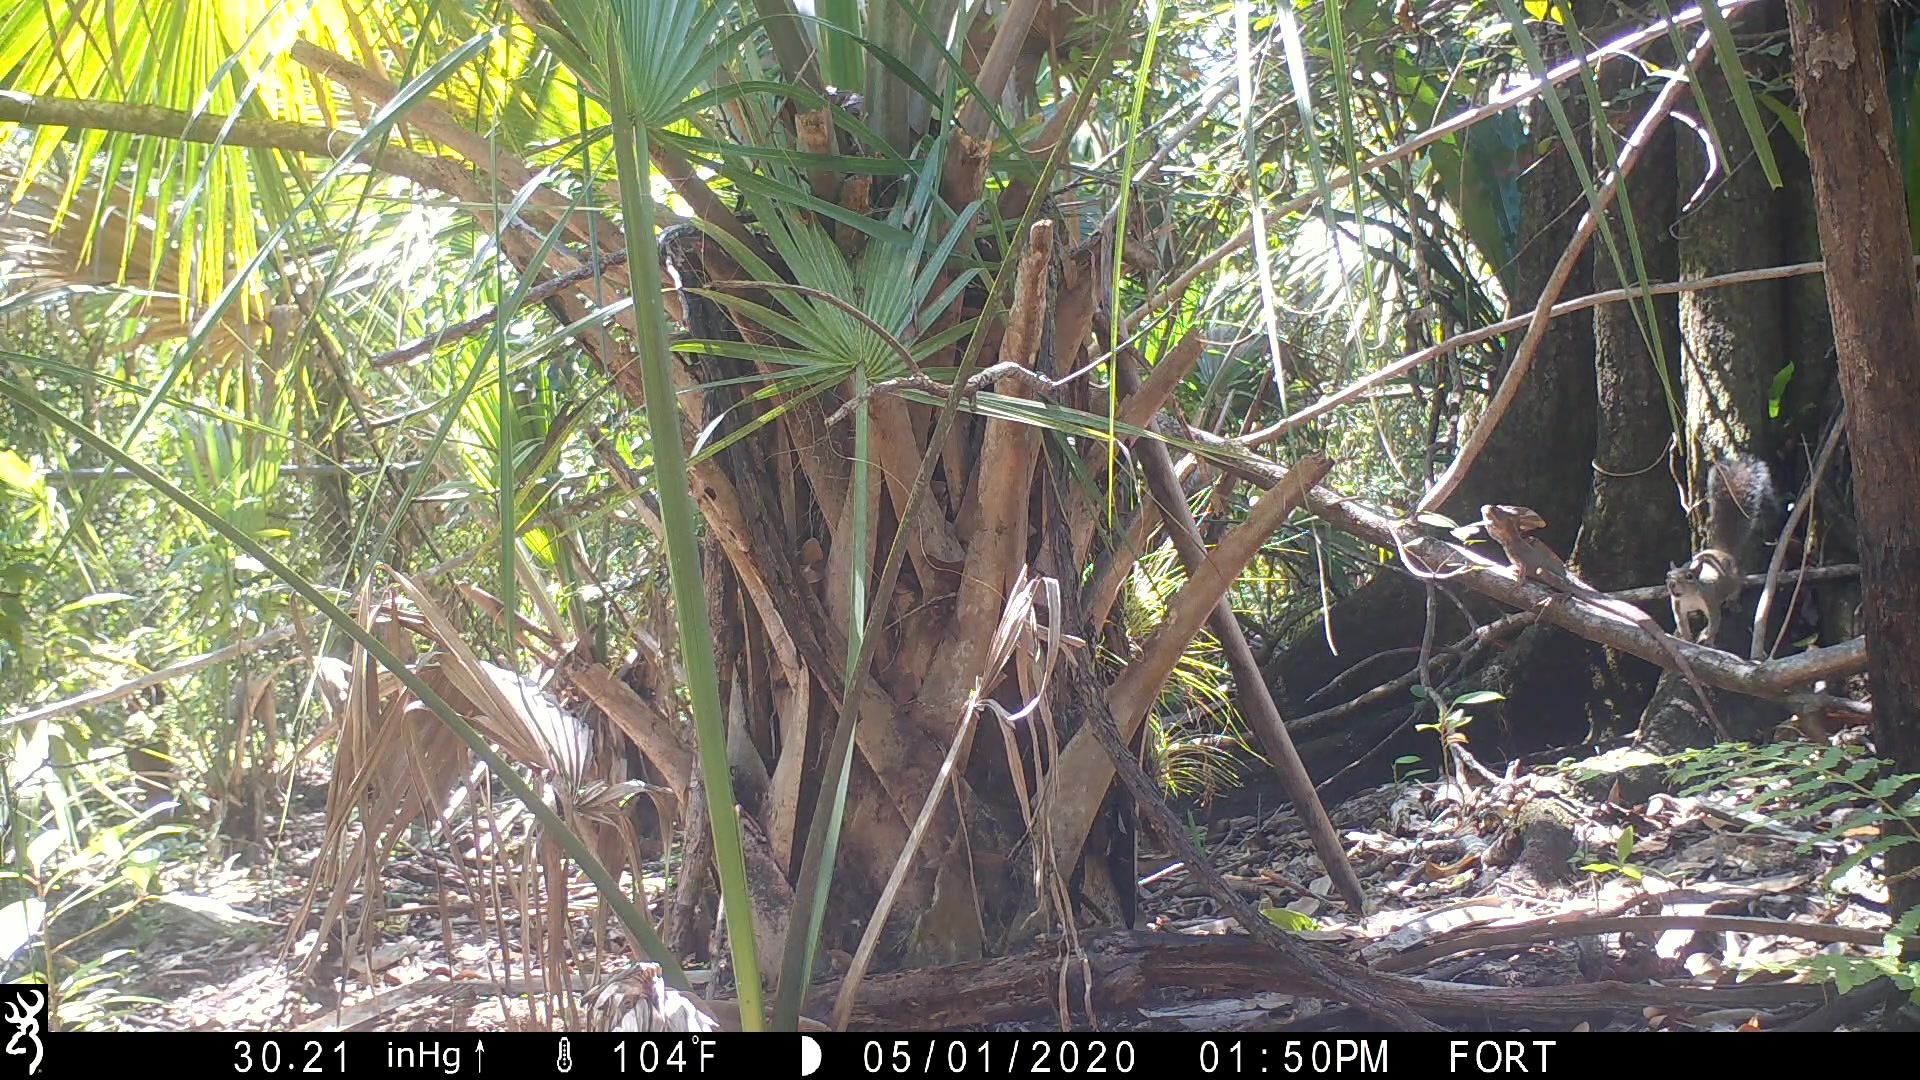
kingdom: Animalia
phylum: Chordata
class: Squamata
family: Corytophanidae
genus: Basiliscus
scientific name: Basiliscus vittatus
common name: Brown basilisk
